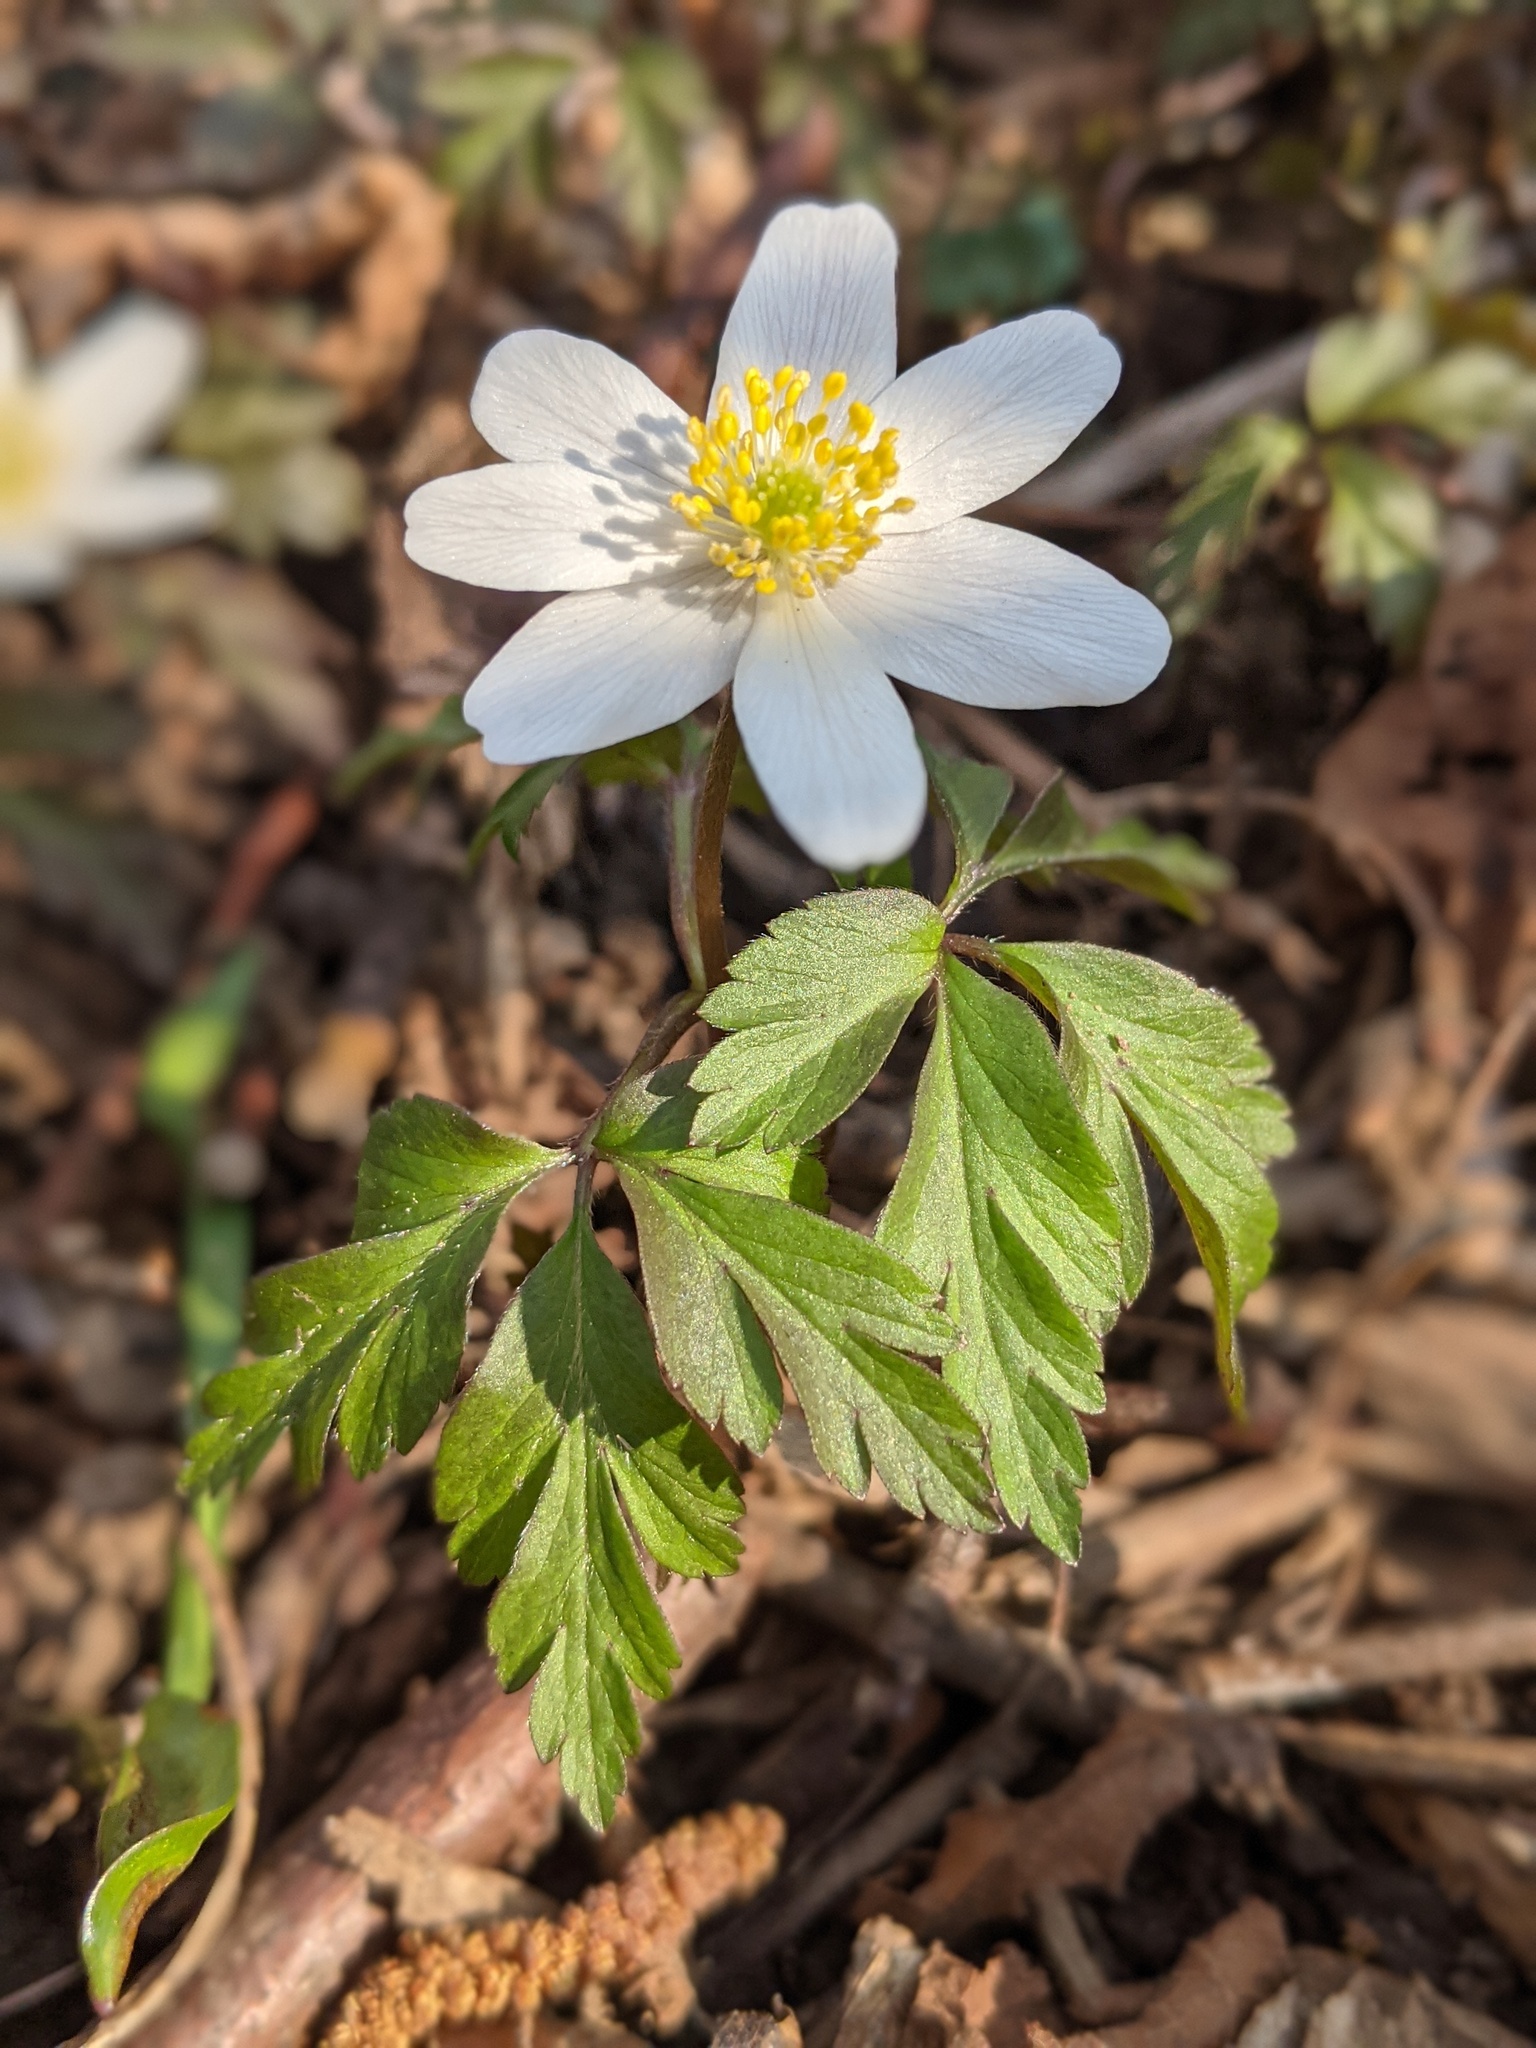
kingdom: Plantae
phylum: Tracheophyta
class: Magnoliopsida
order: Ranunculales
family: Ranunculaceae
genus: Anemone
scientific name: Anemone nemorosa
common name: Wood anemone
